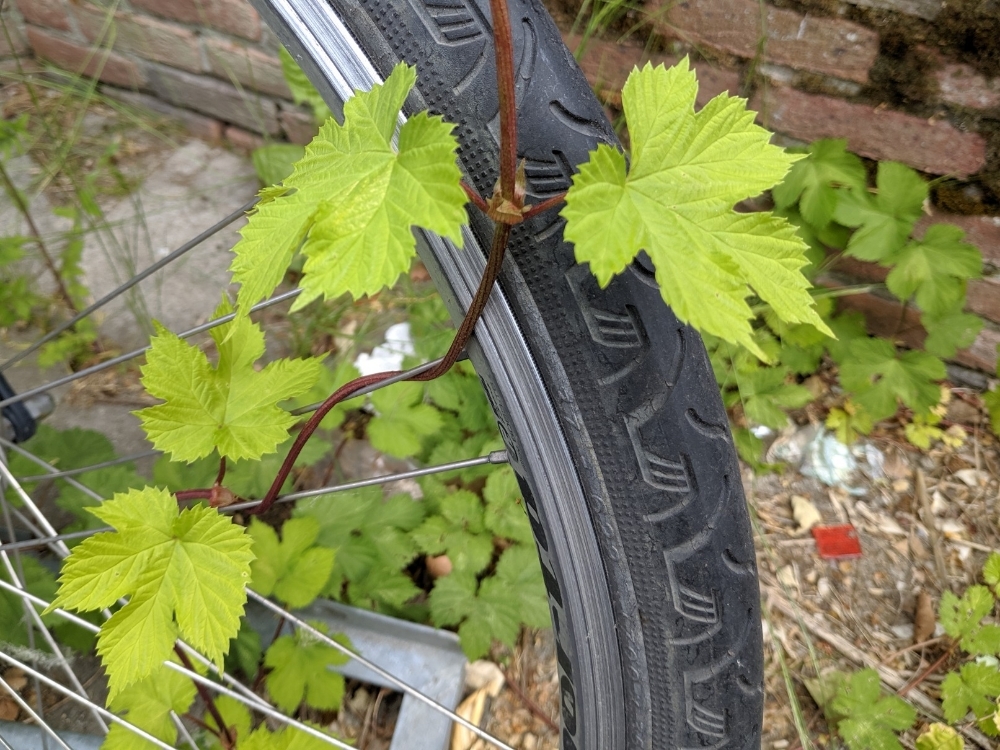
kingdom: Plantae
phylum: Tracheophyta
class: Magnoliopsida
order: Rosales
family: Cannabaceae
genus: Humulus
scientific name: Humulus lupulus
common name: Hop
